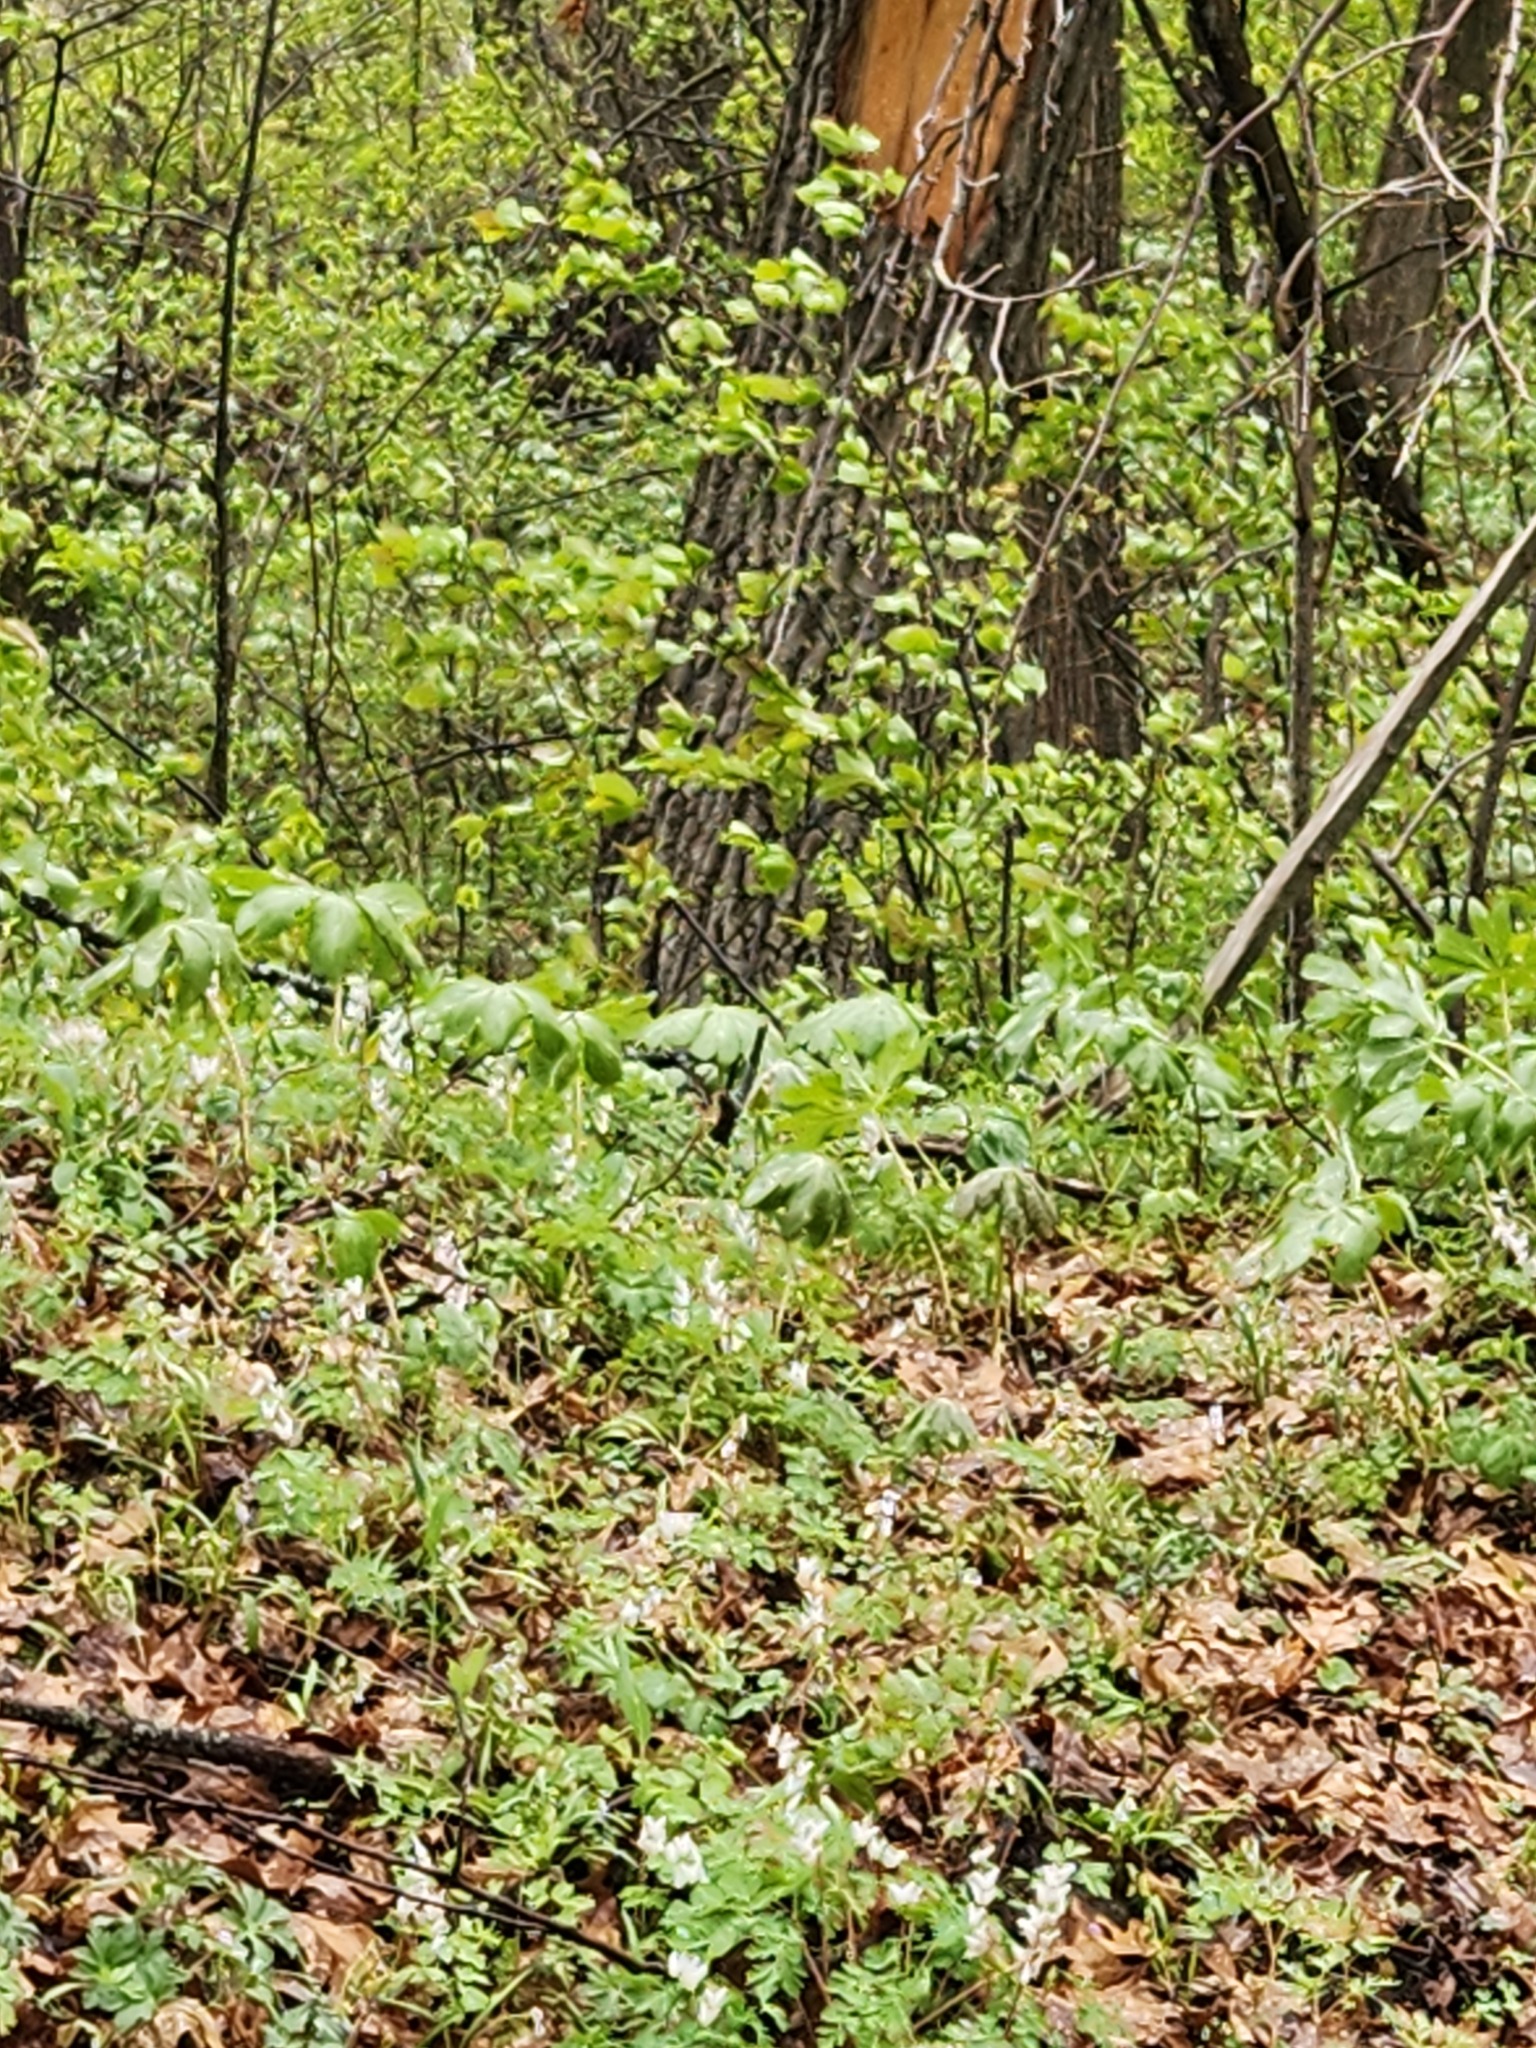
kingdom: Plantae
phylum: Tracheophyta
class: Magnoliopsida
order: Ranunculales
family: Berberidaceae
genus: Podophyllum
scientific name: Podophyllum peltatum
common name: Wild mandrake
